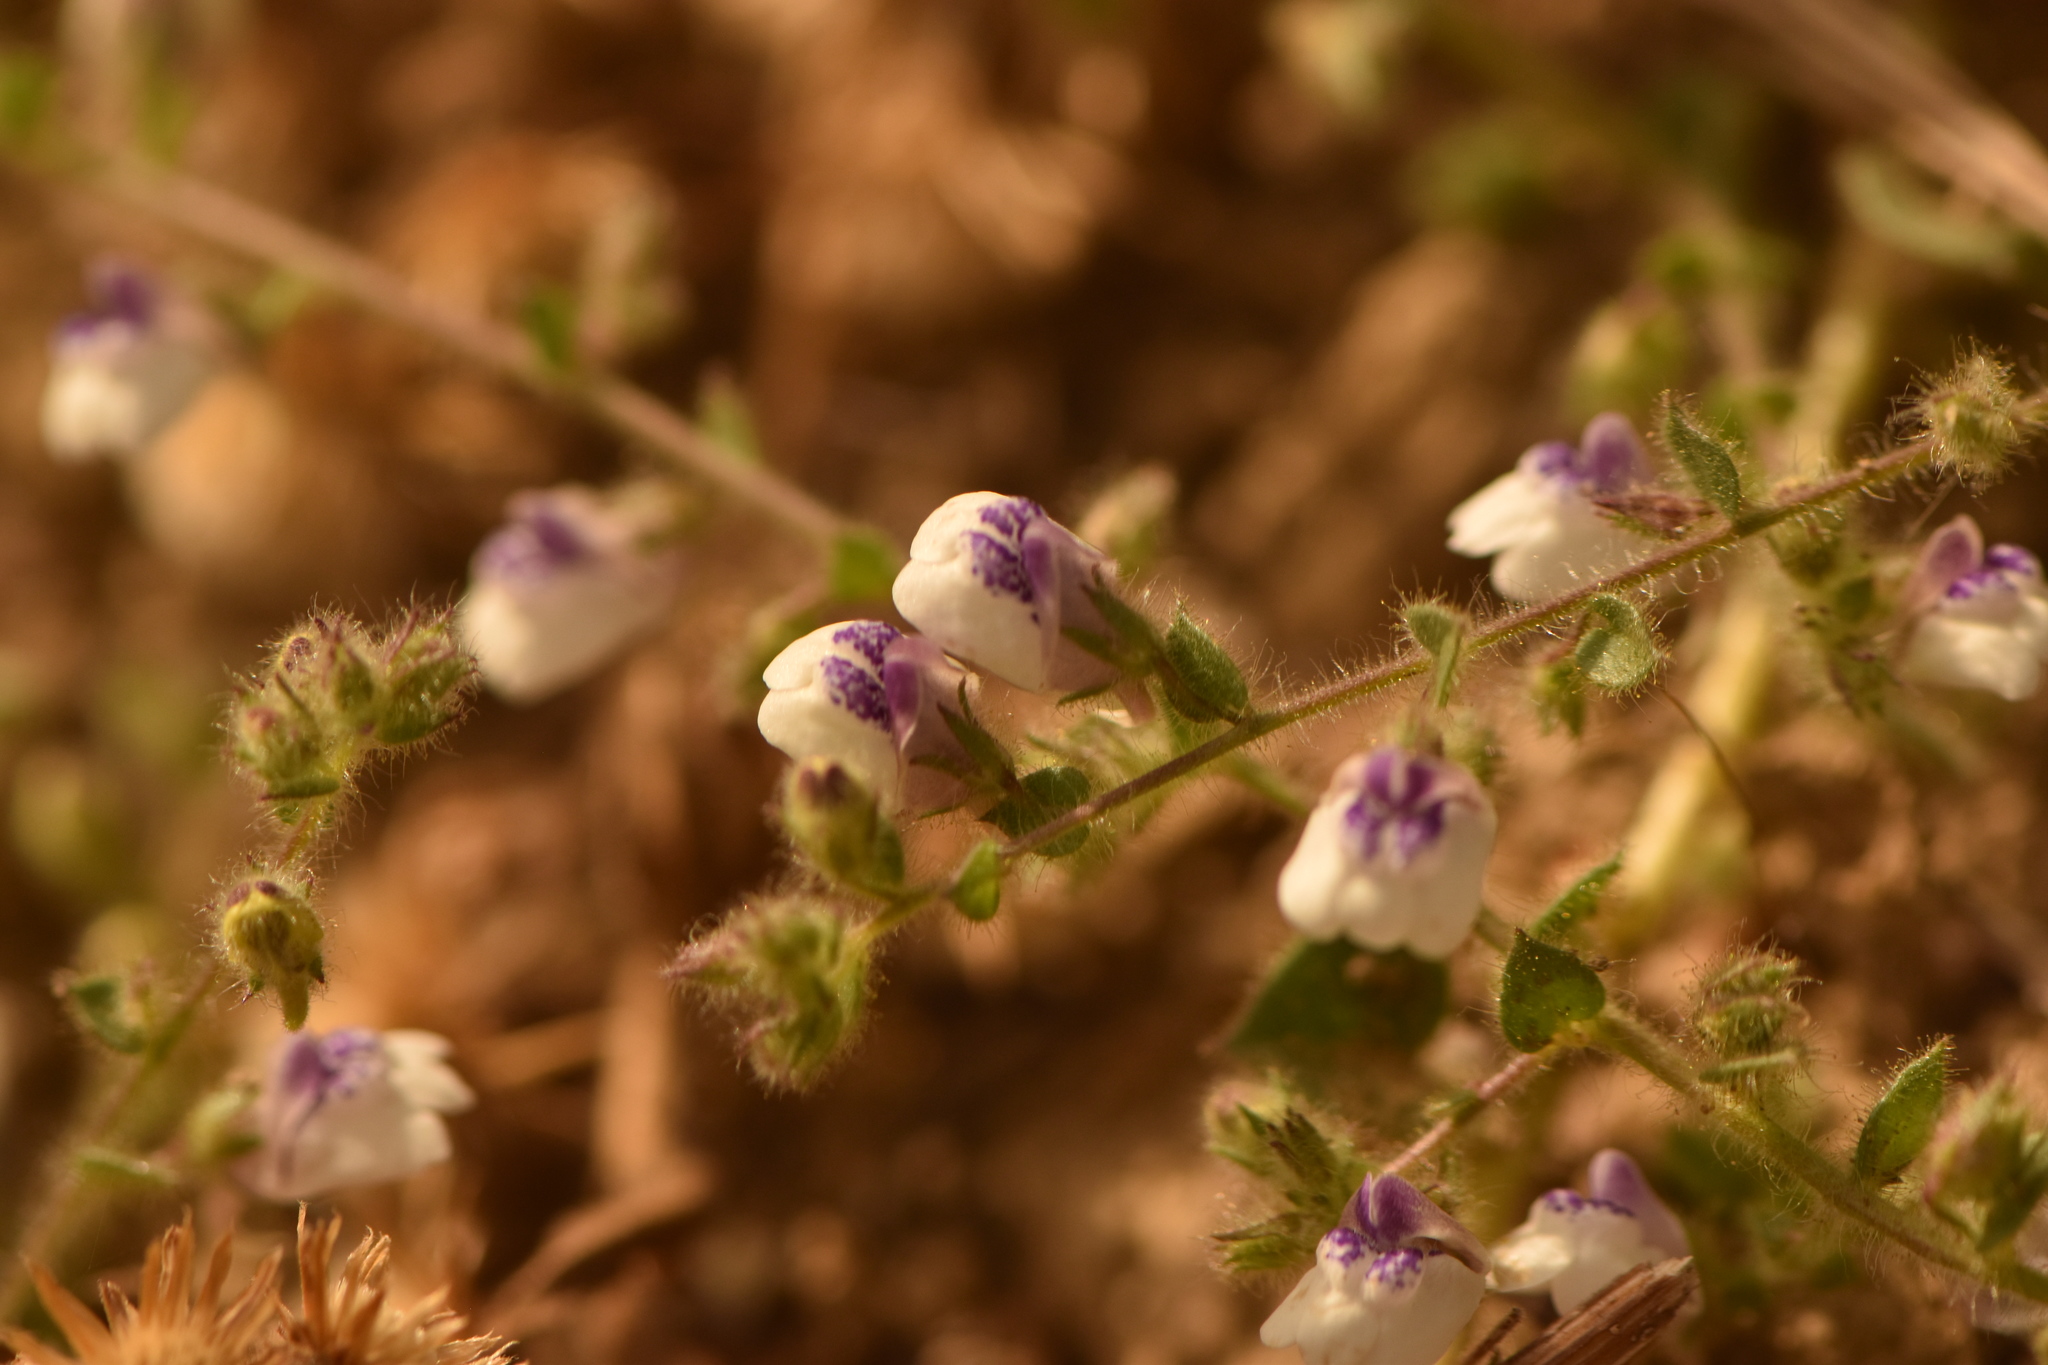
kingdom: Plantae
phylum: Tracheophyta
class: Magnoliopsida
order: Lamiales
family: Plantaginaceae
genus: Kickxia
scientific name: Kickxia lanigera
